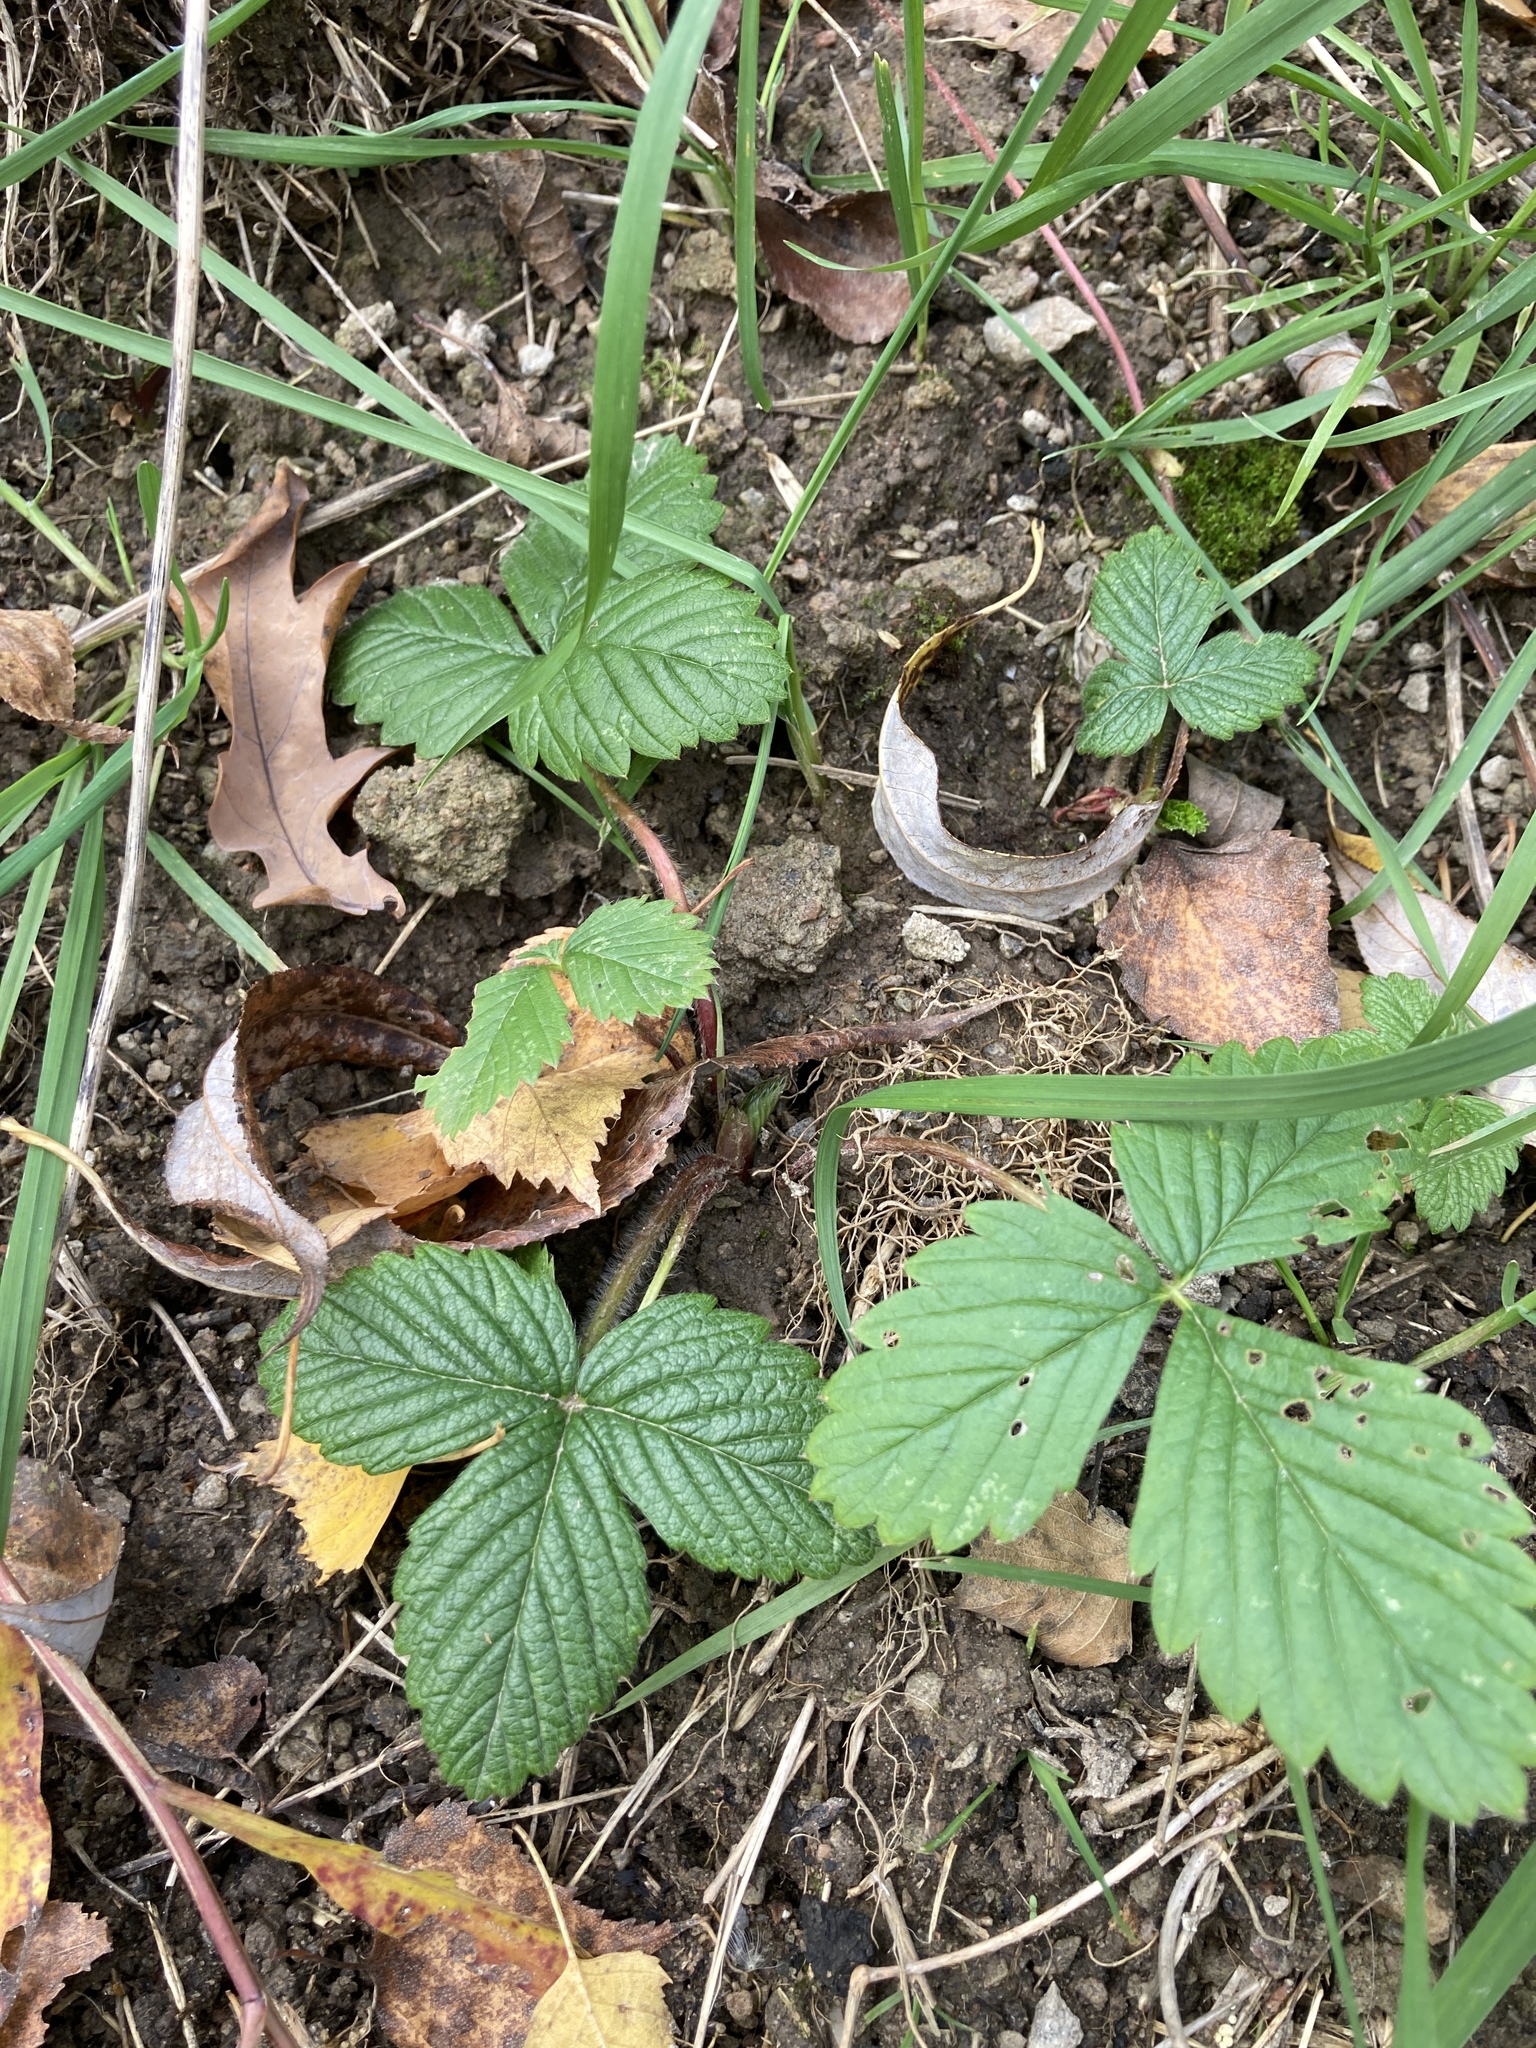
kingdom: Plantae
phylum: Tracheophyta
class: Magnoliopsida
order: Rosales
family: Rosaceae
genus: Fragaria
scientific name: Fragaria moschata
